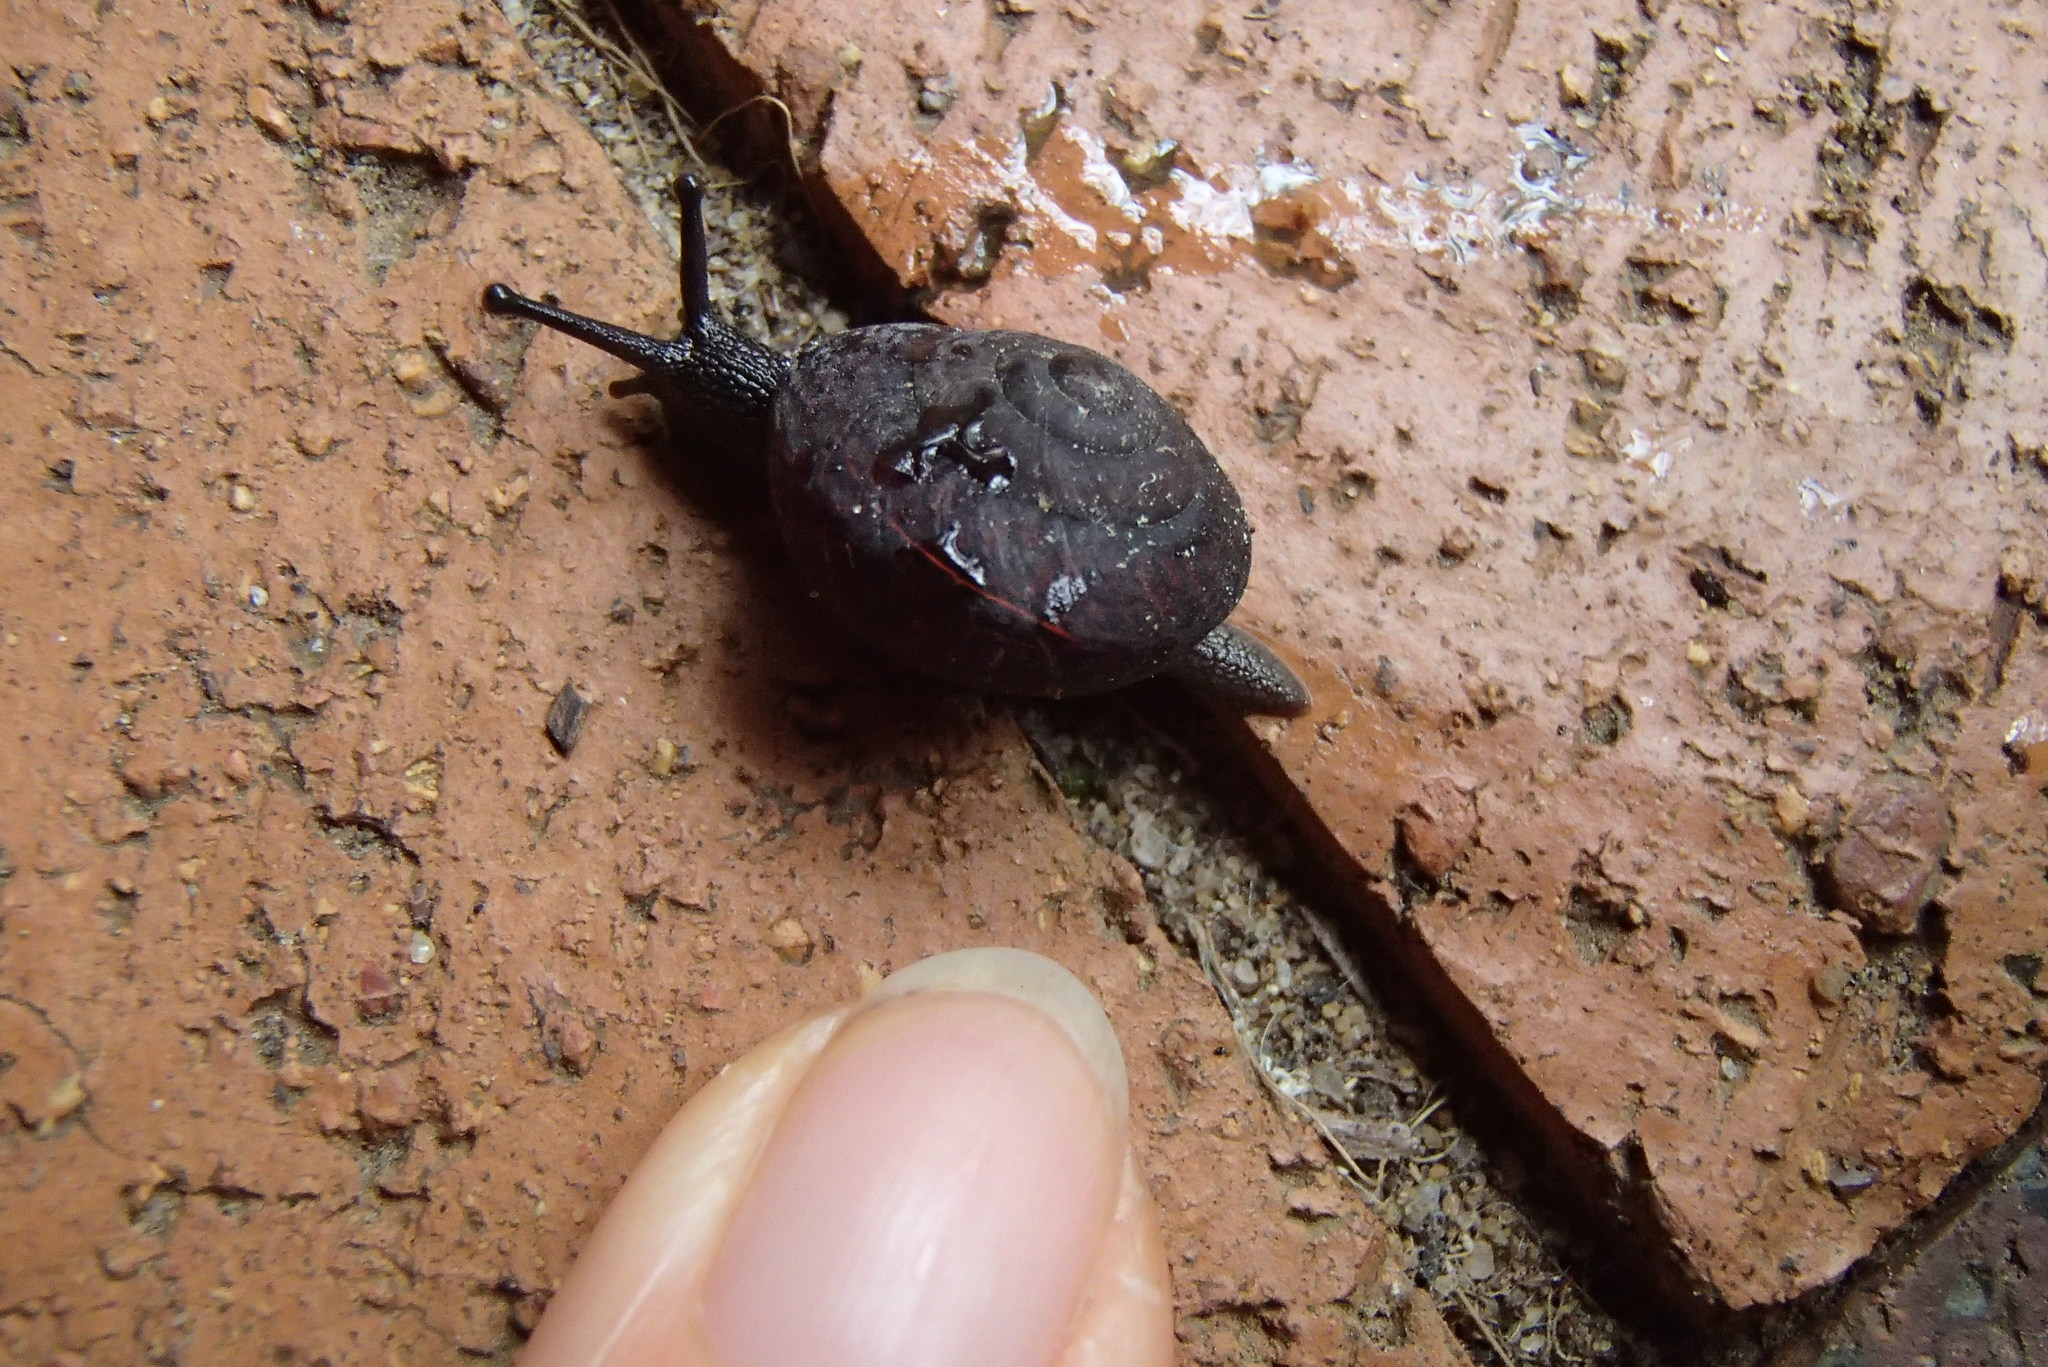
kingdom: Animalia
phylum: Mollusca
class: Gastropoda
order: Stylommatophora
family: Camaenidae
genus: Pommerhelix
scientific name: Pommerhelix monacha
